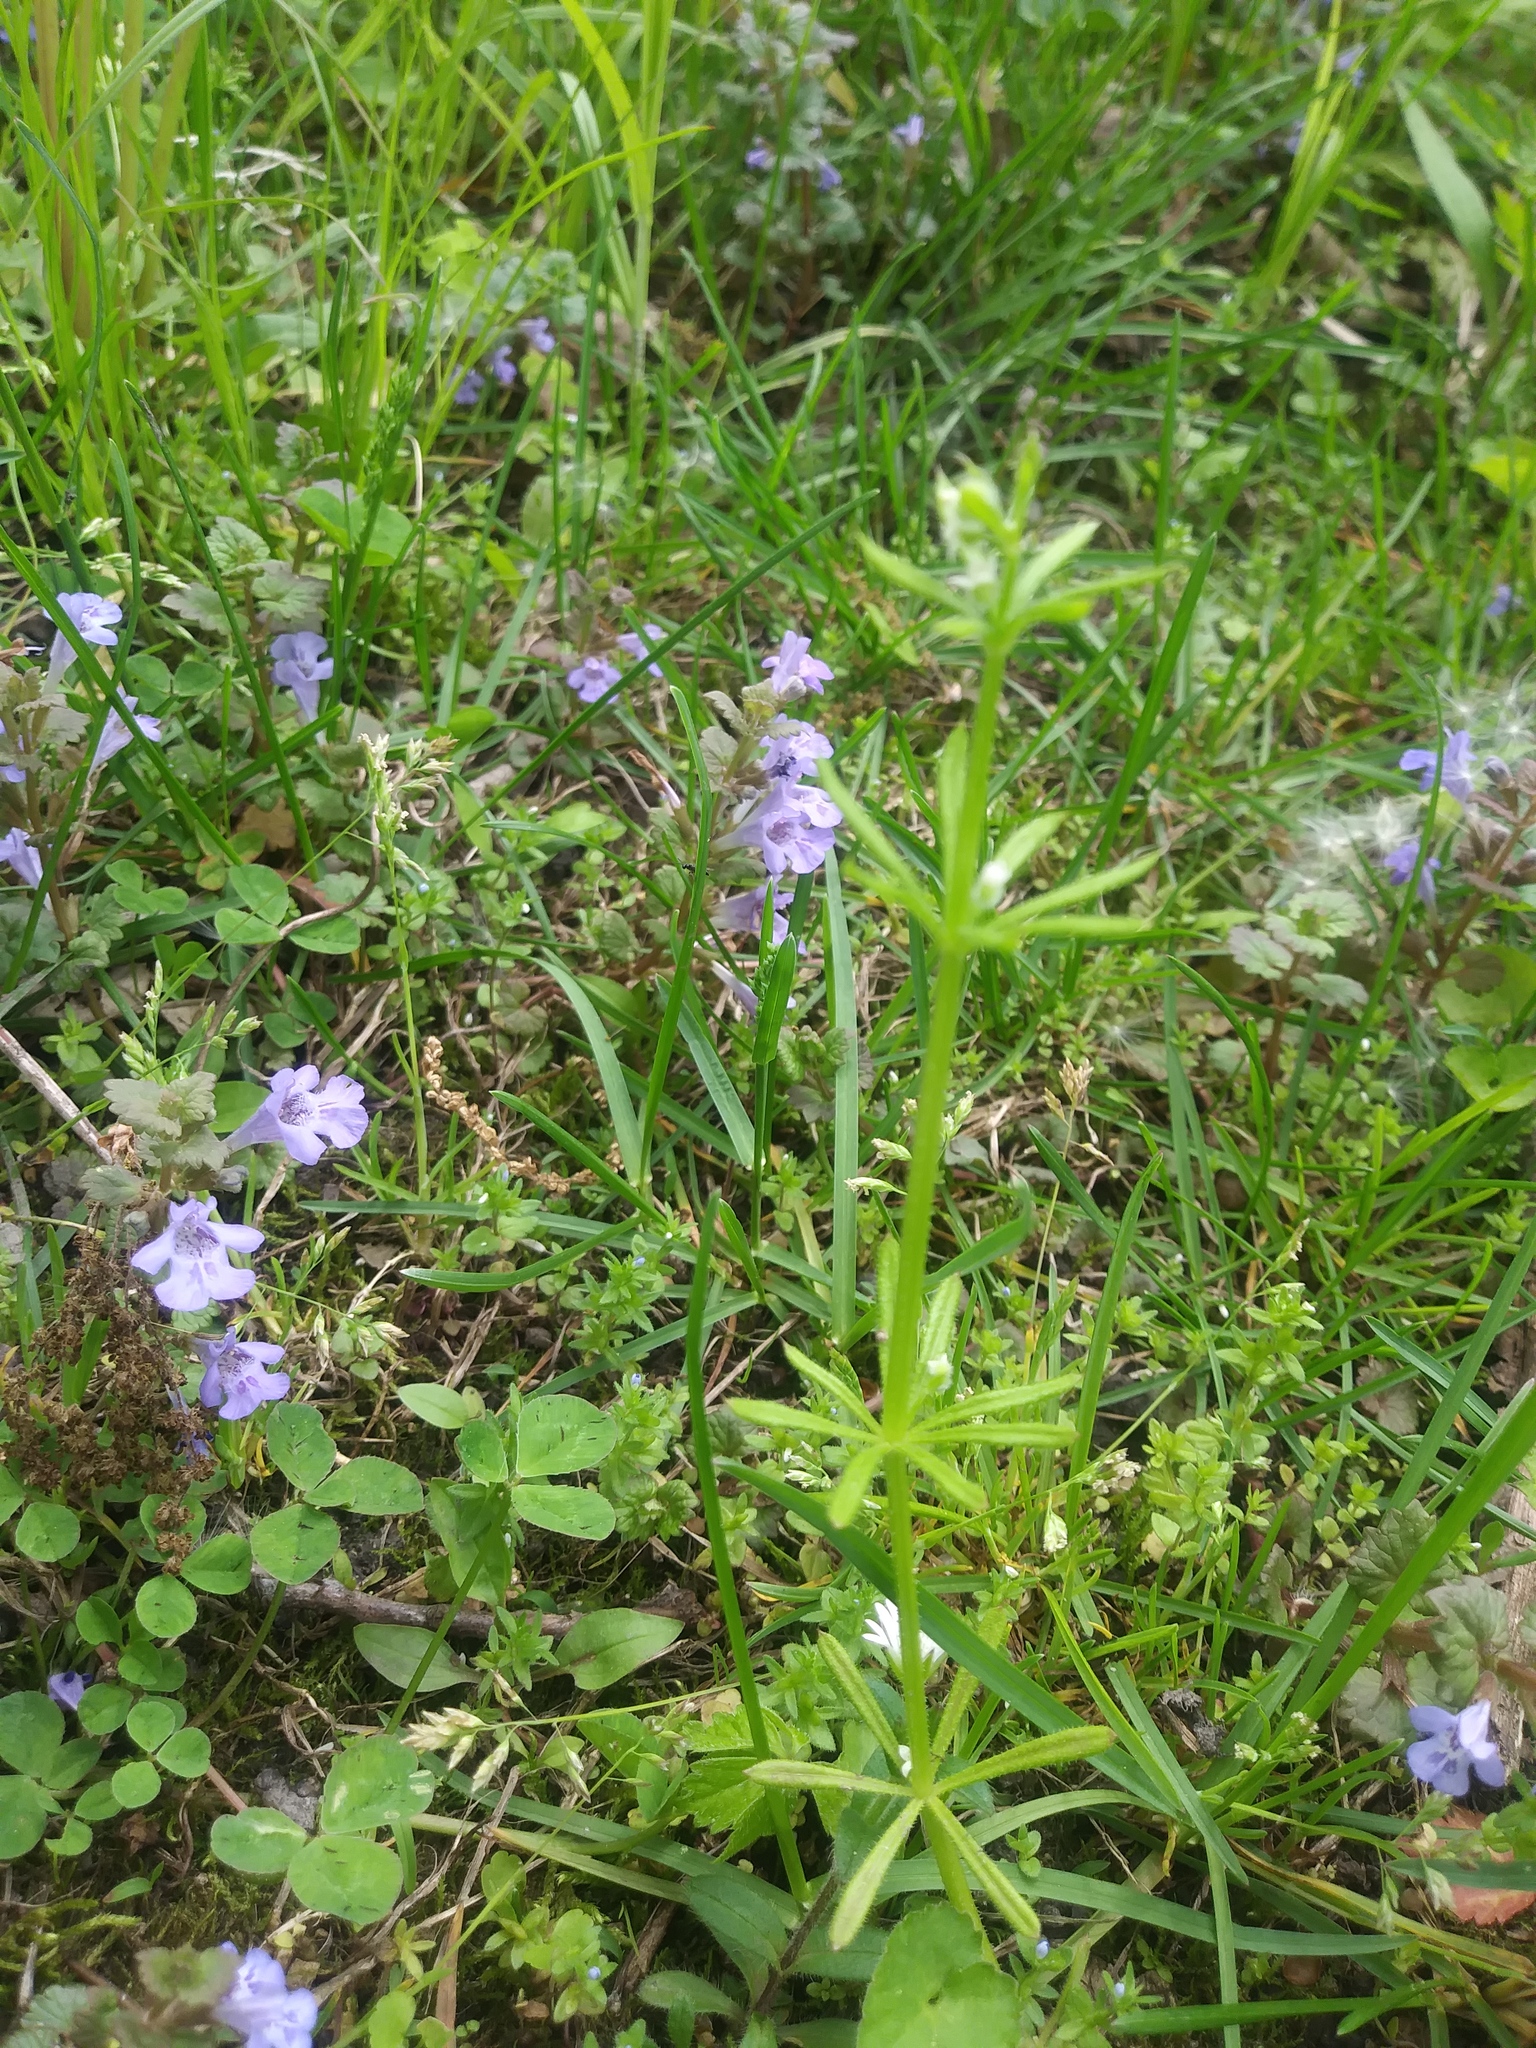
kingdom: Plantae
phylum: Tracheophyta
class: Magnoliopsida
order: Gentianales
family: Rubiaceae
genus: Galium
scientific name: Galium aparine
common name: Cleavers
